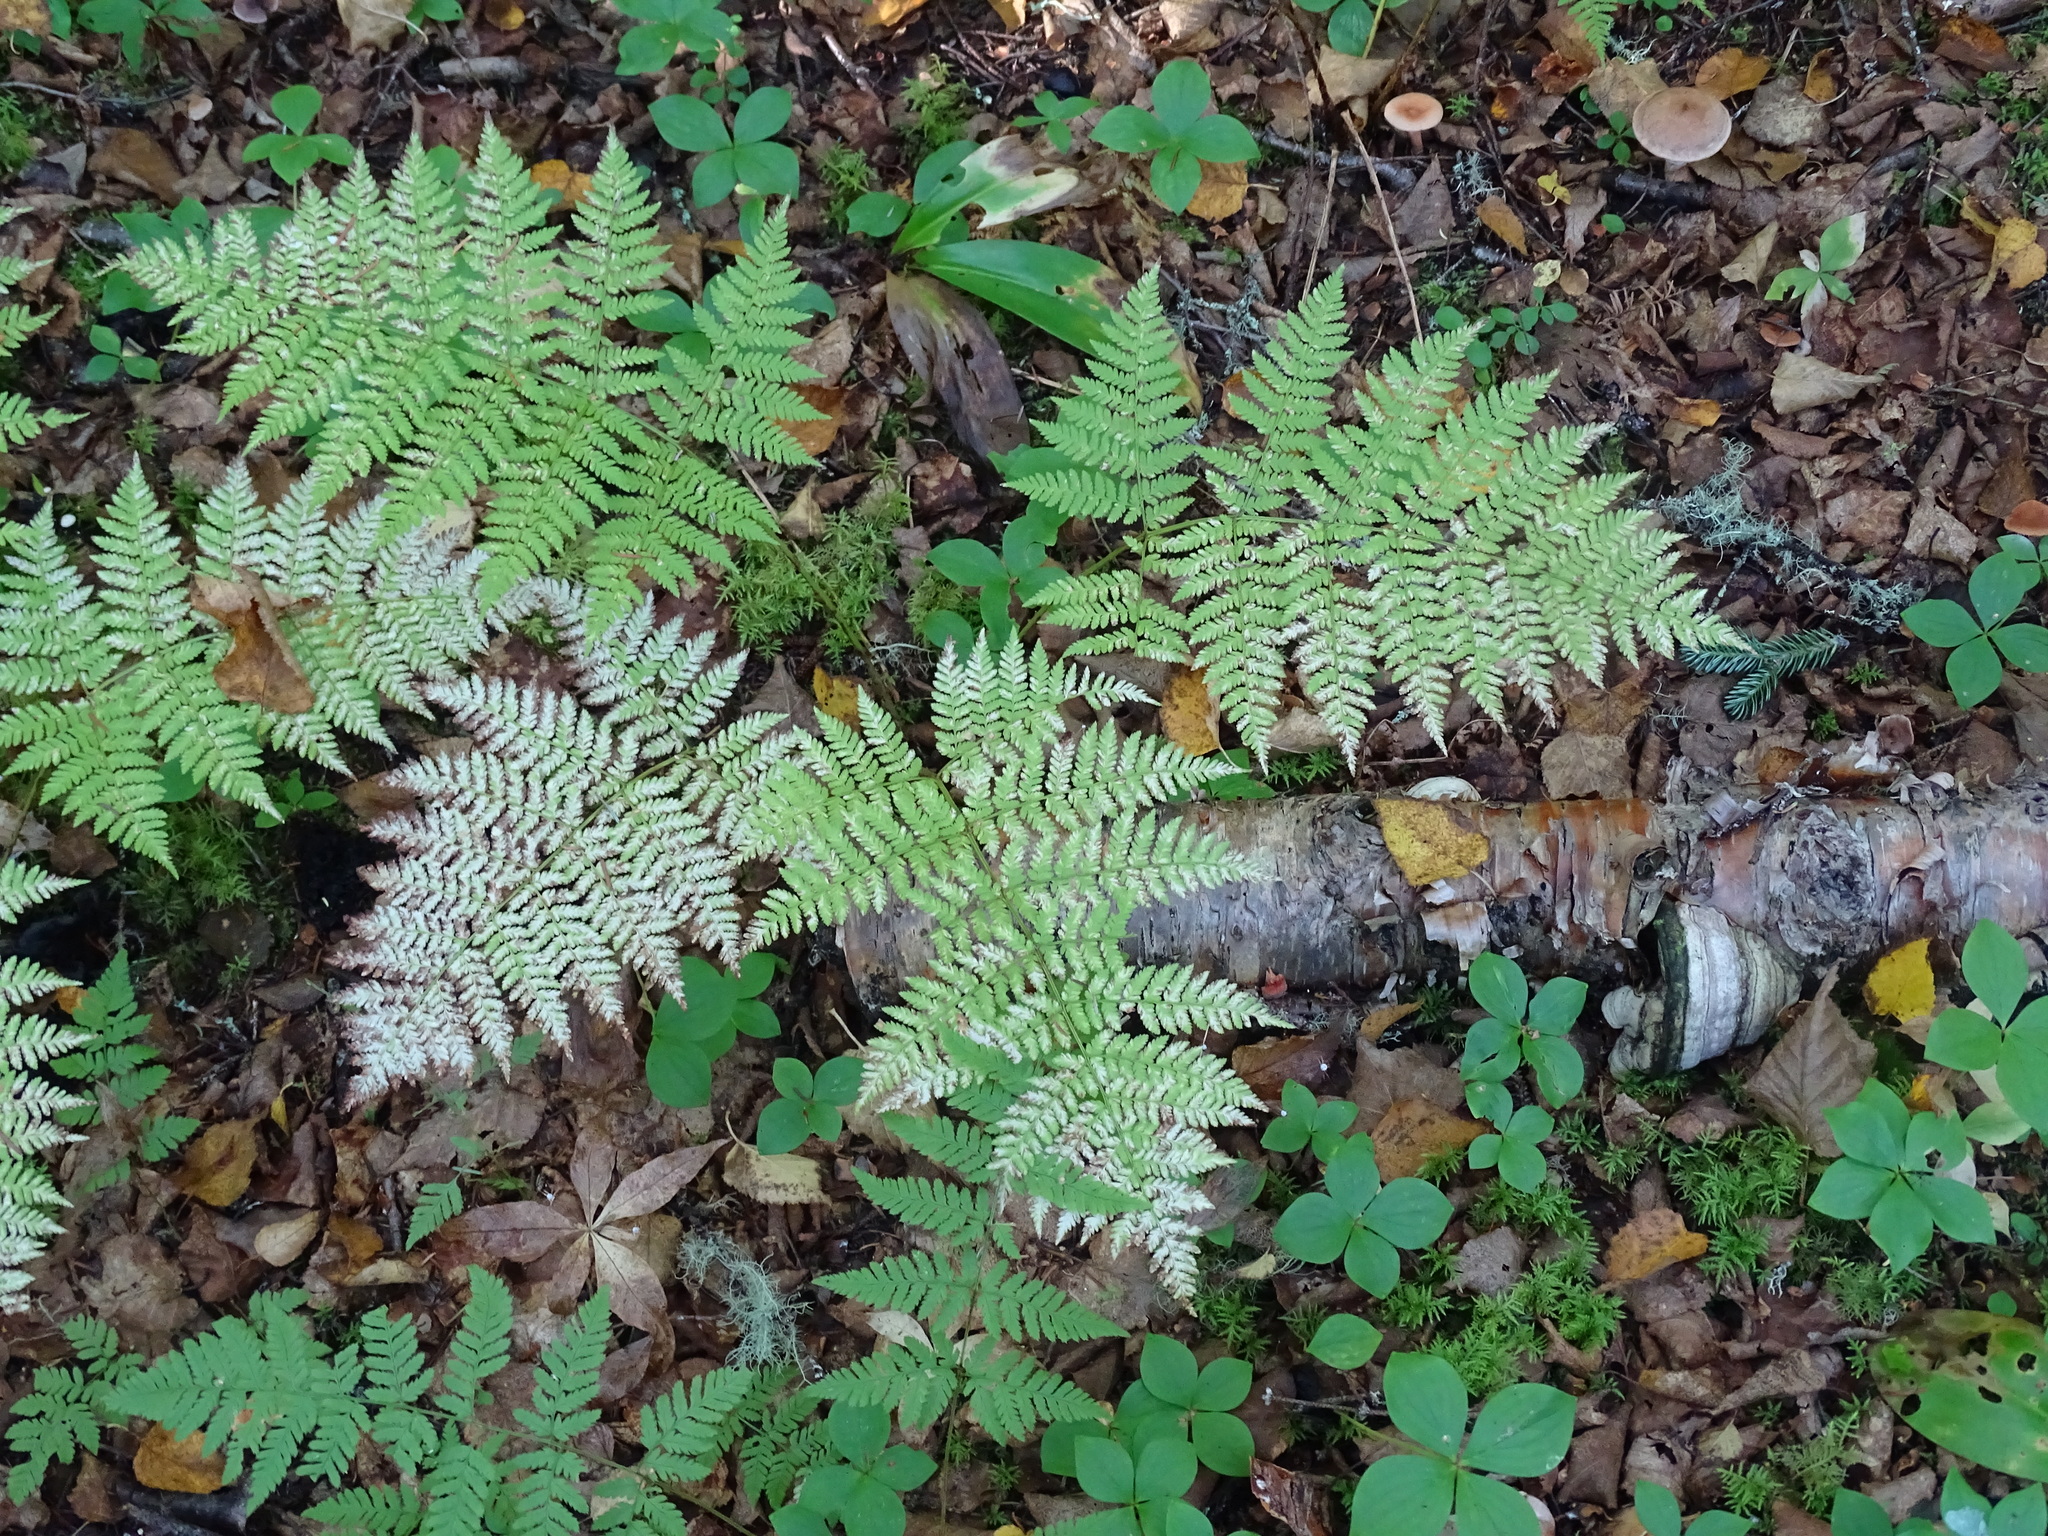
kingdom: Plantae
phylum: Tracheophyta
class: Polypodiopsida
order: Polypodiales
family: Dryopteridaceae
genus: Dryopteris
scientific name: Dryopteris expansa
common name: Northern buckler fern
